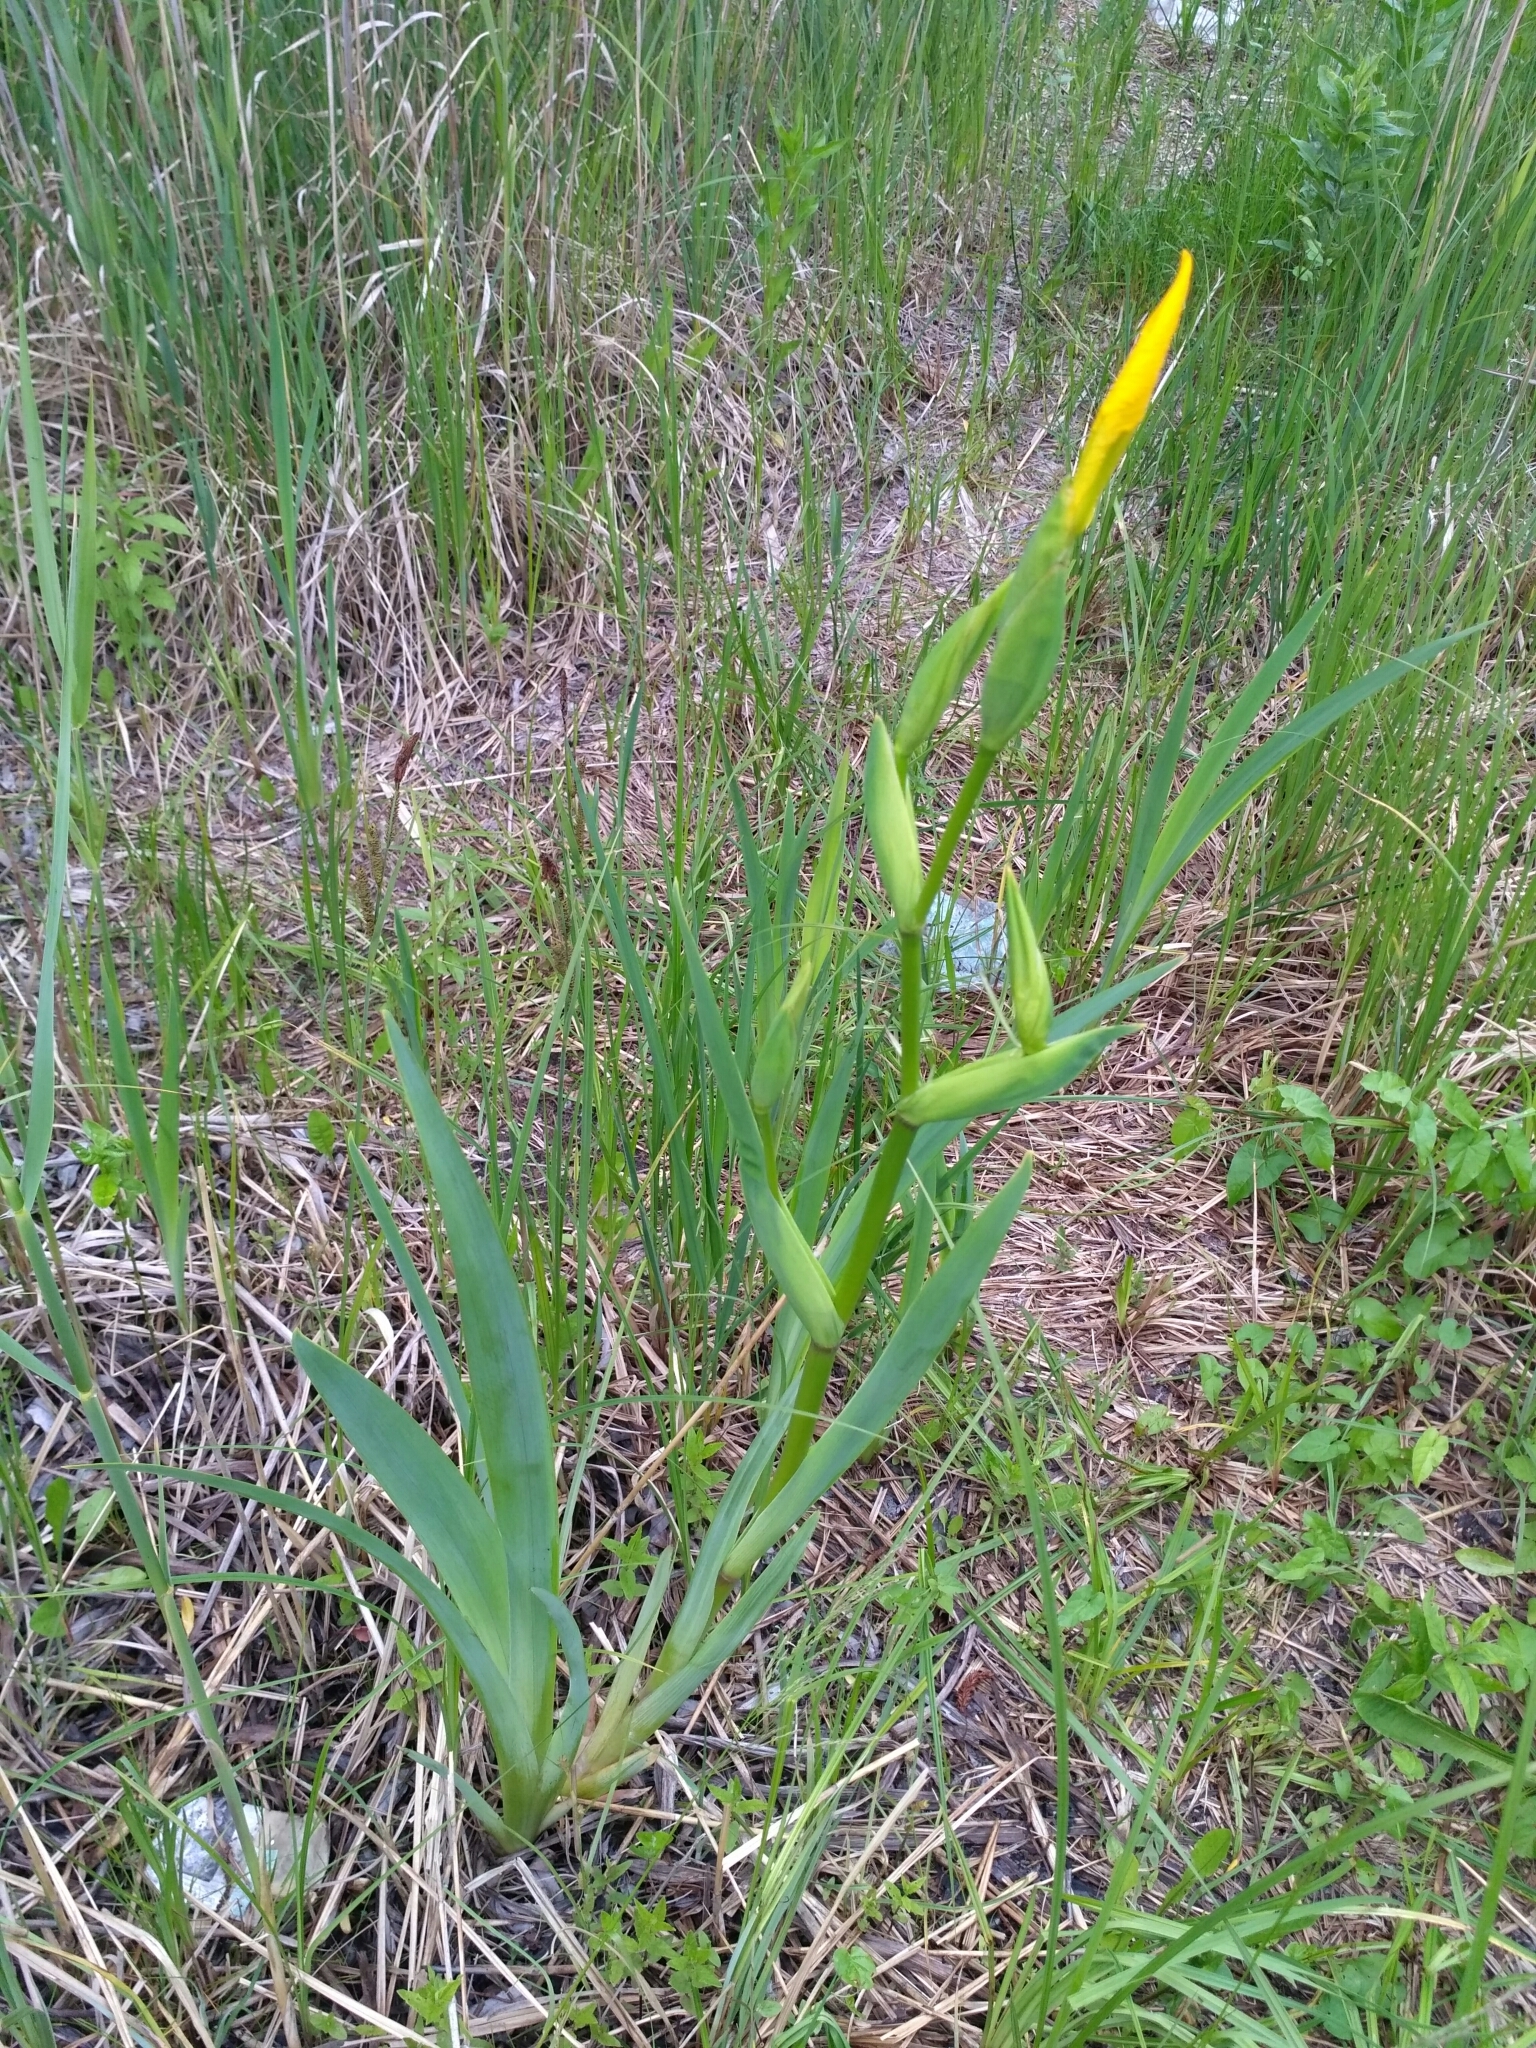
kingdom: Plantae
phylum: Tracheophyta
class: Liliopsida
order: Asparagales
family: Iridaceae
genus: Iris
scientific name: Iris pseudacorus
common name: Yellow flag
